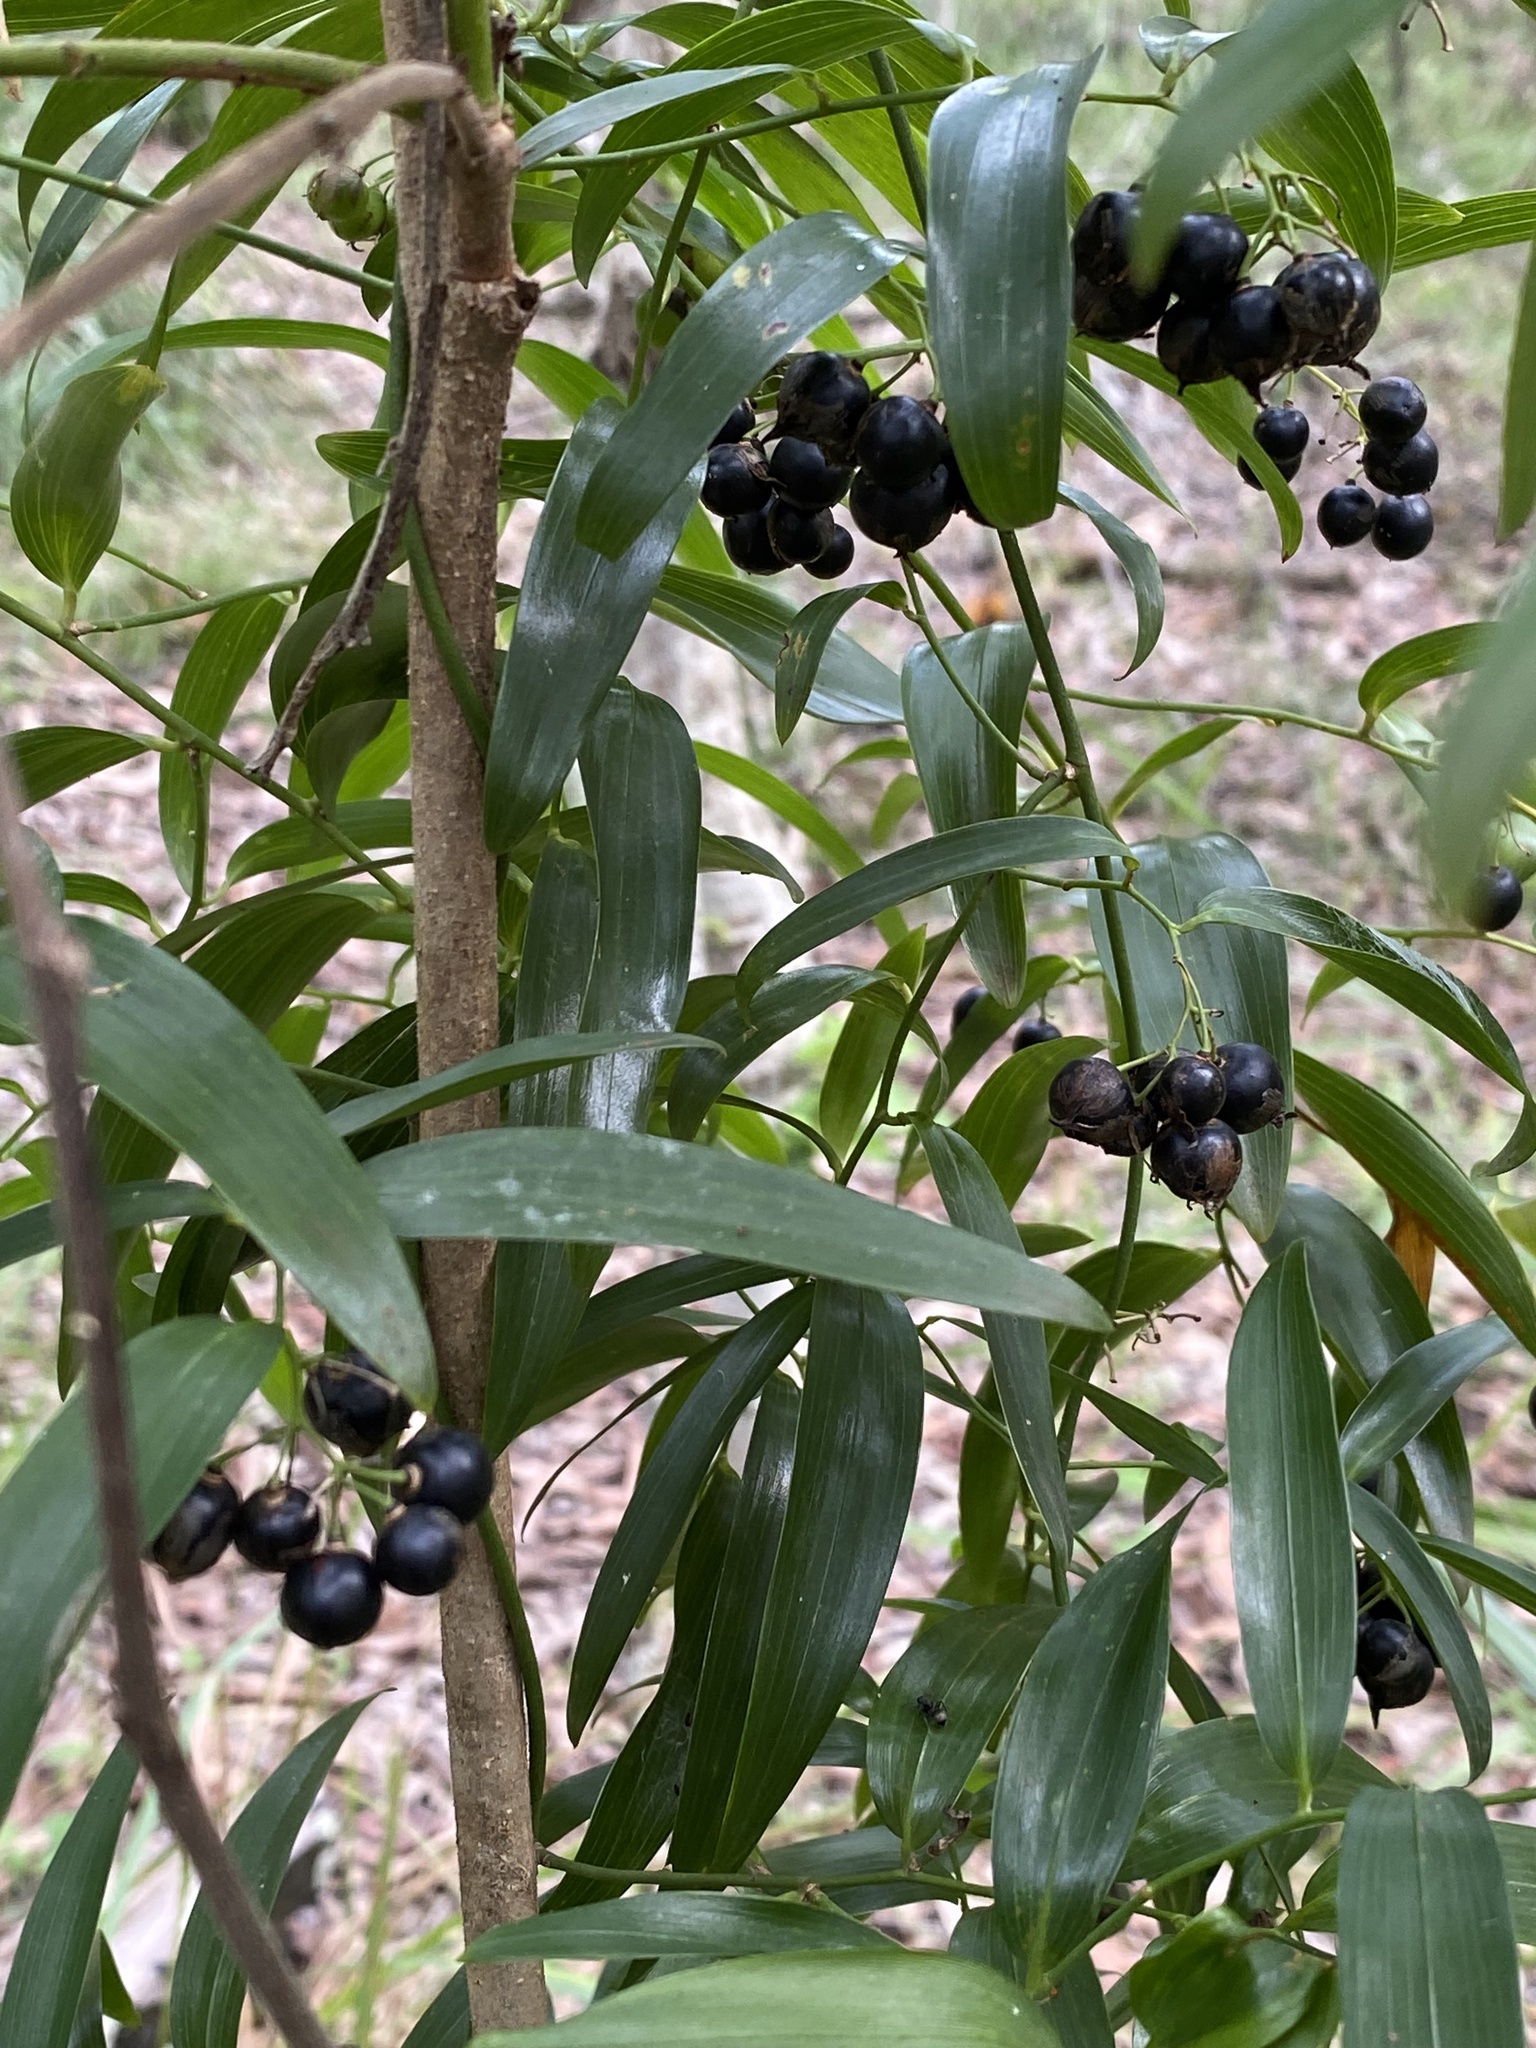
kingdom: Plantae
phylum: Tracheophyta
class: Liliopsida
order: Asparagales
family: Asphodelaceae
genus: Geitonoplesium
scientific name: Geitonoplesium cymosum
